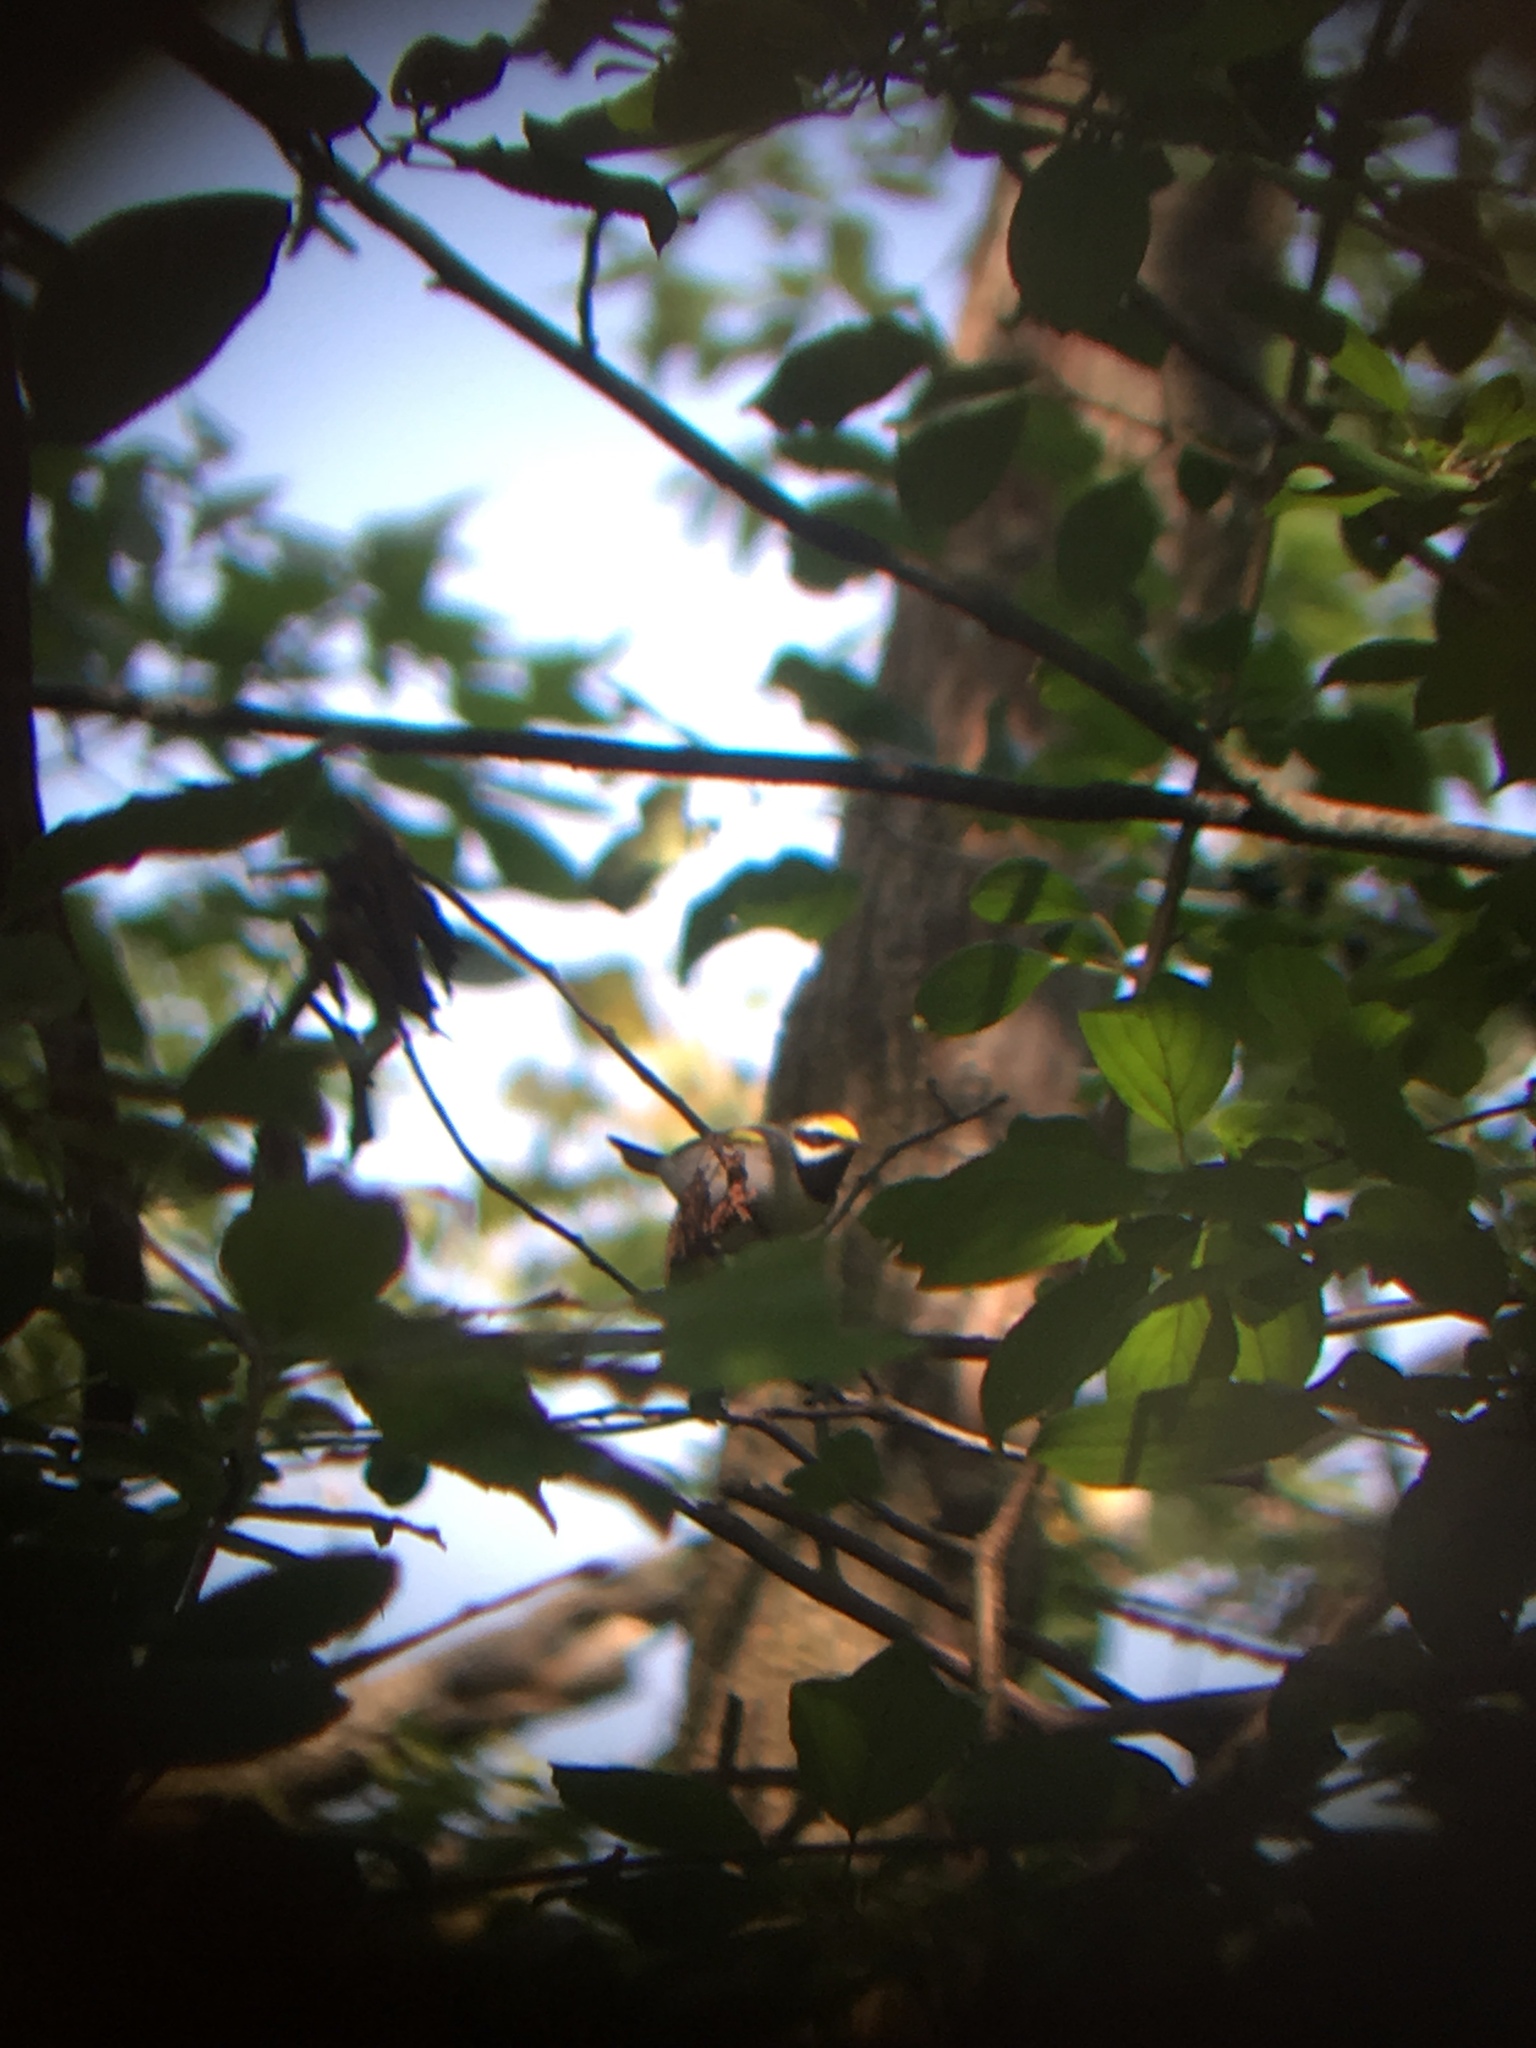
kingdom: Animalia
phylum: Chordata
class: Aves
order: Passeriformes
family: Parulidae
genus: Vermivora
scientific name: Vermivora chrysoptera
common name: Golden-winged warbler
